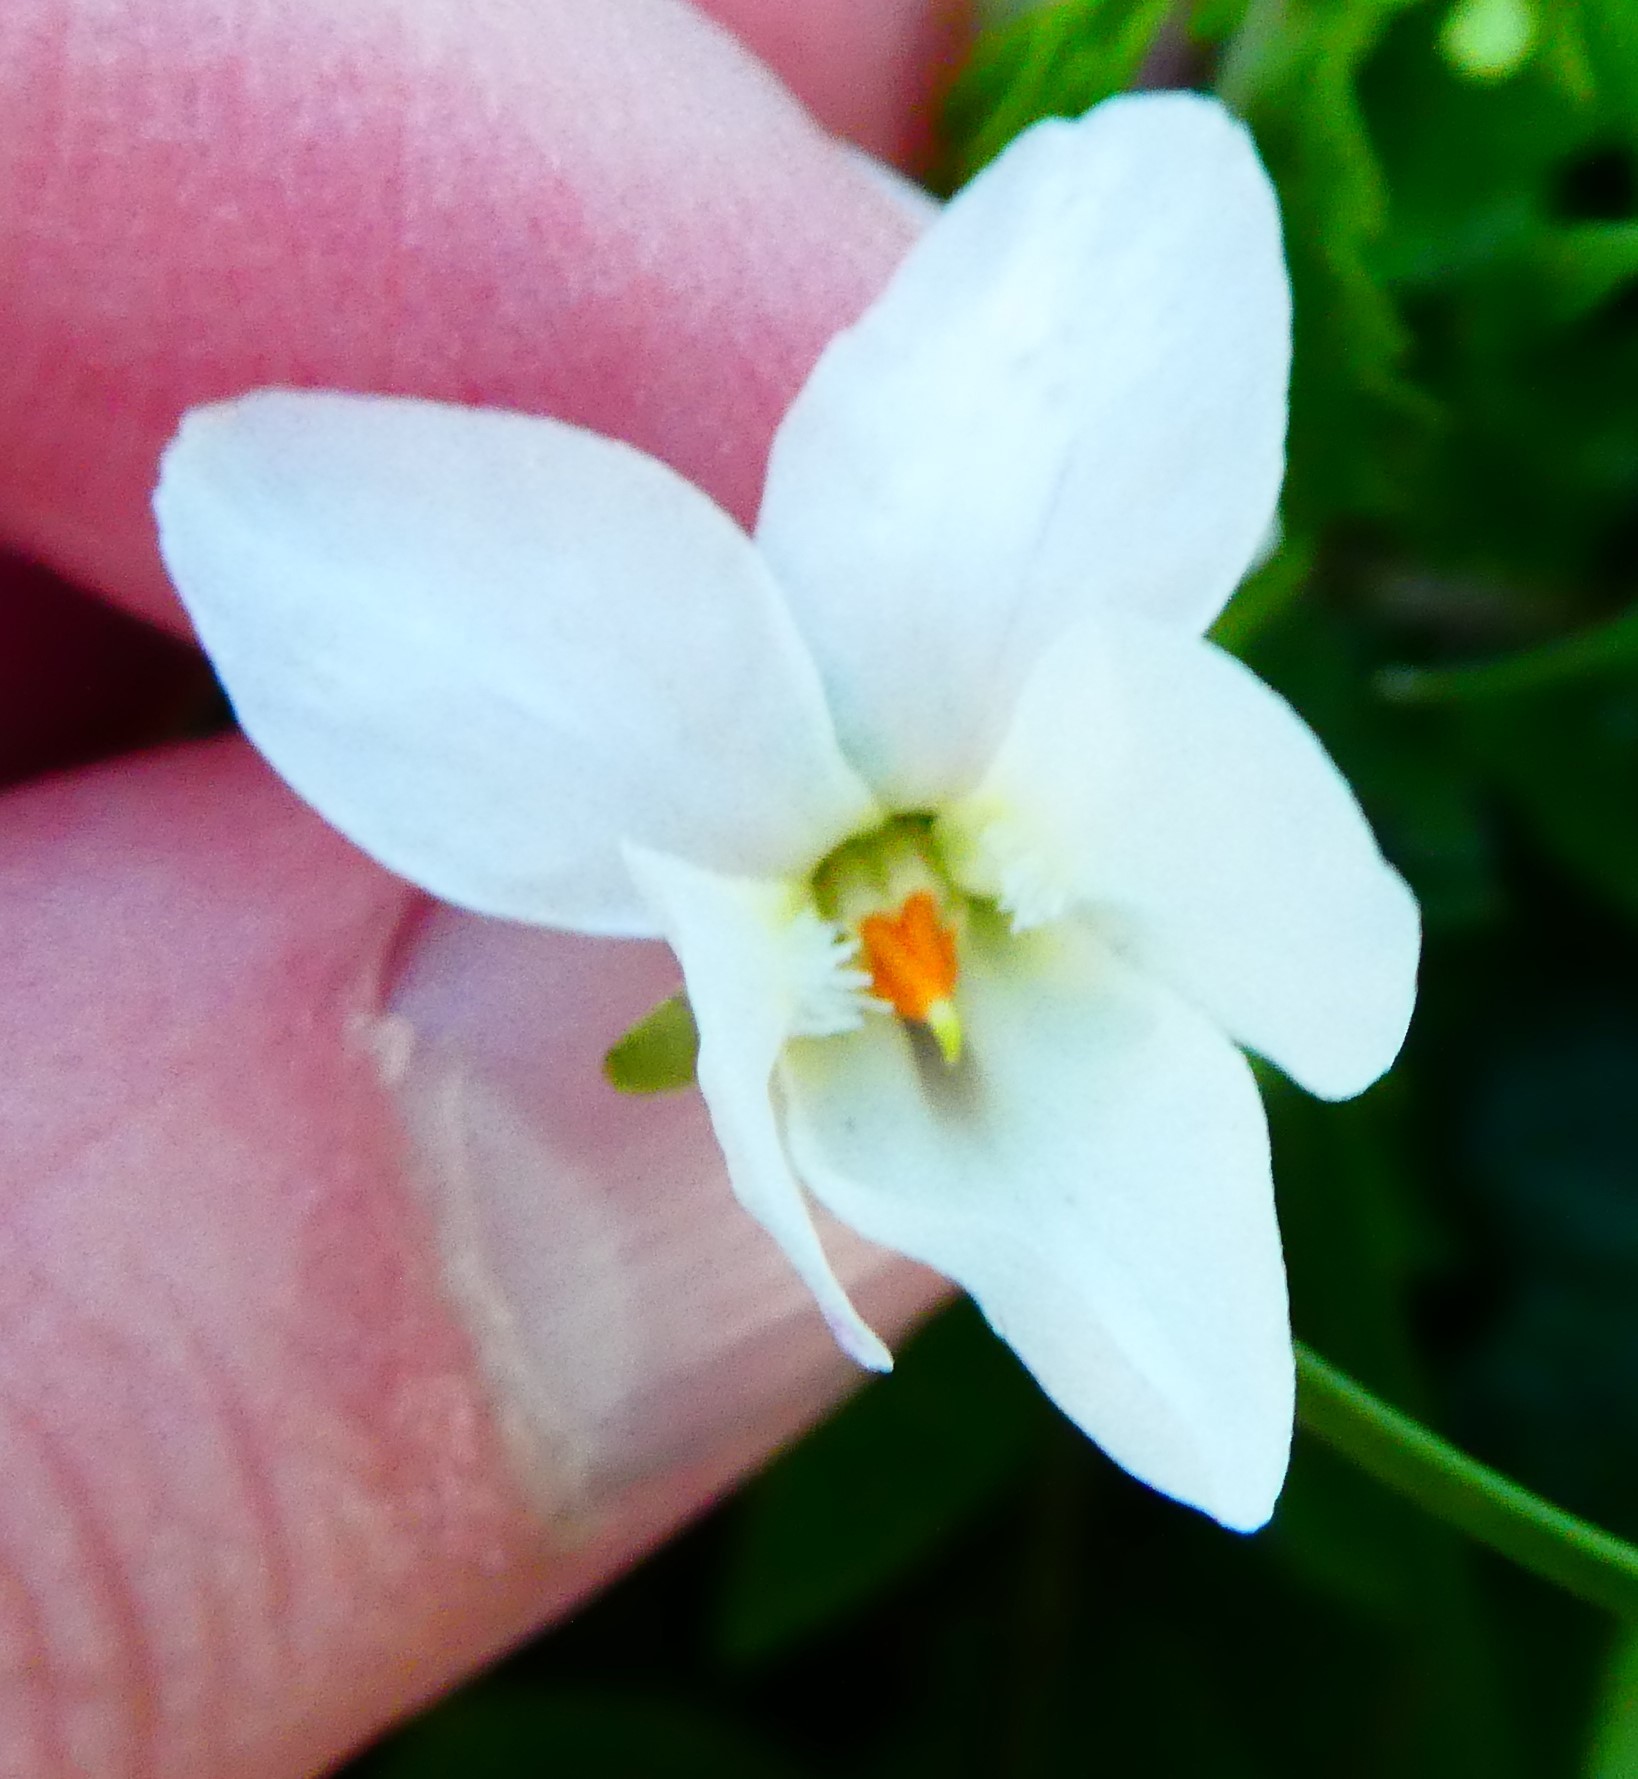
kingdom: Plantae
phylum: Tracheophyta
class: Magnoliopsida
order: Malpighiales
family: Violaceae
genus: Viola
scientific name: Viola odorata
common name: Sweet violet
